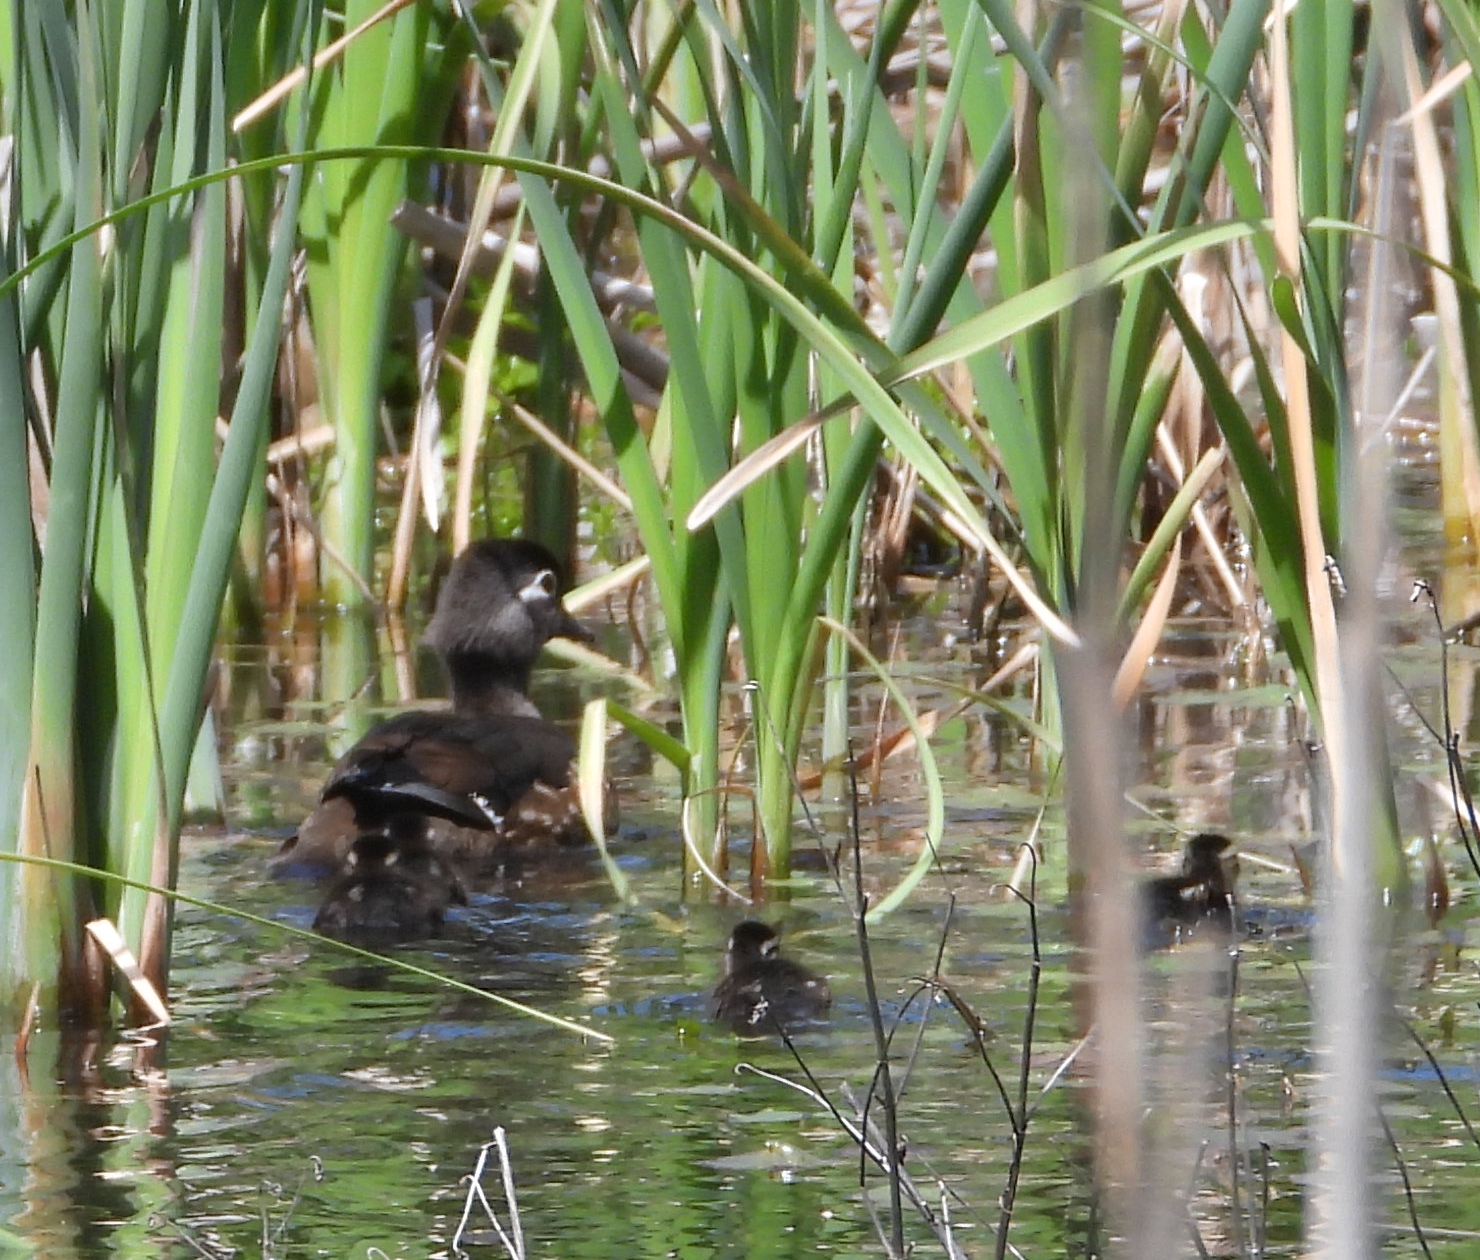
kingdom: Animalia
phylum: Chordata
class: Aves
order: Anseriformes
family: Anatidae
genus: Aix
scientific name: Aix sponsa
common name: Wood duck
